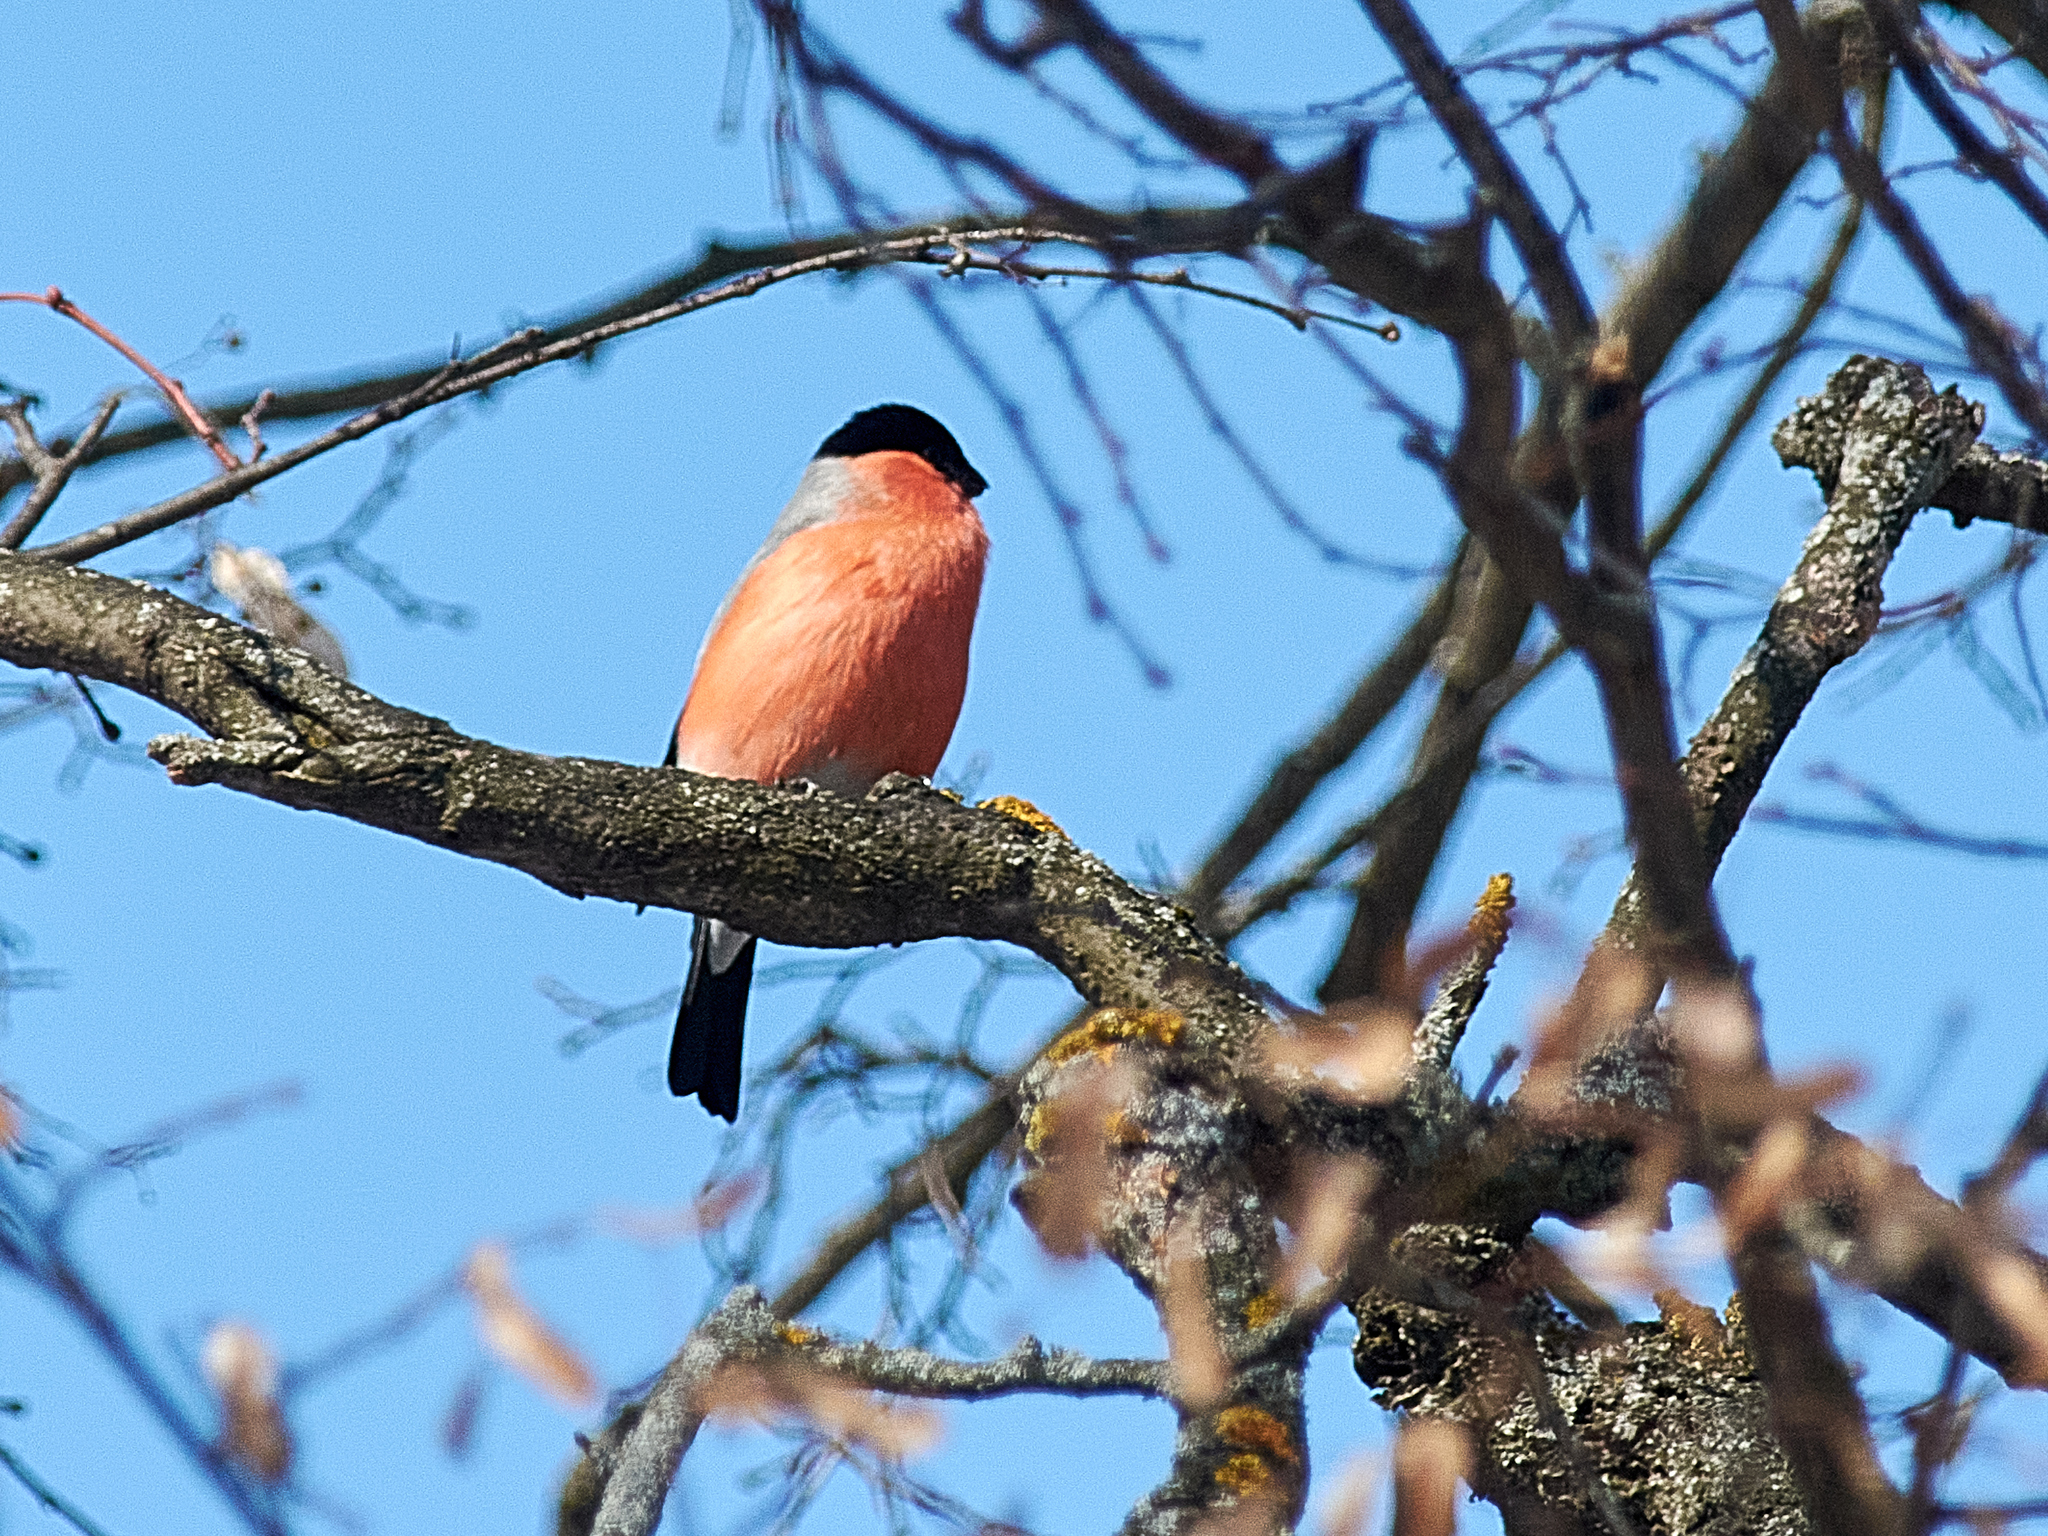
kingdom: Animalia
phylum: Chordata
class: Aves
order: Passeriformes
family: Fringillidae
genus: Pyrrhula
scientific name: Pyrrhula pyrrhula
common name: Eurasian bullfinch
